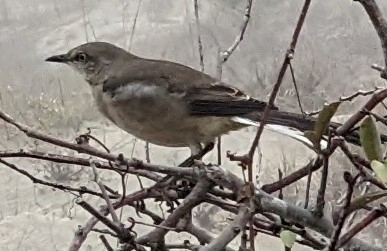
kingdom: Animalia
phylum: Chordata
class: Aves
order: Passeriformes
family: Mimidae
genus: Mimus
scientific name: Mimus polyglottos
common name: Northern mockingbird
